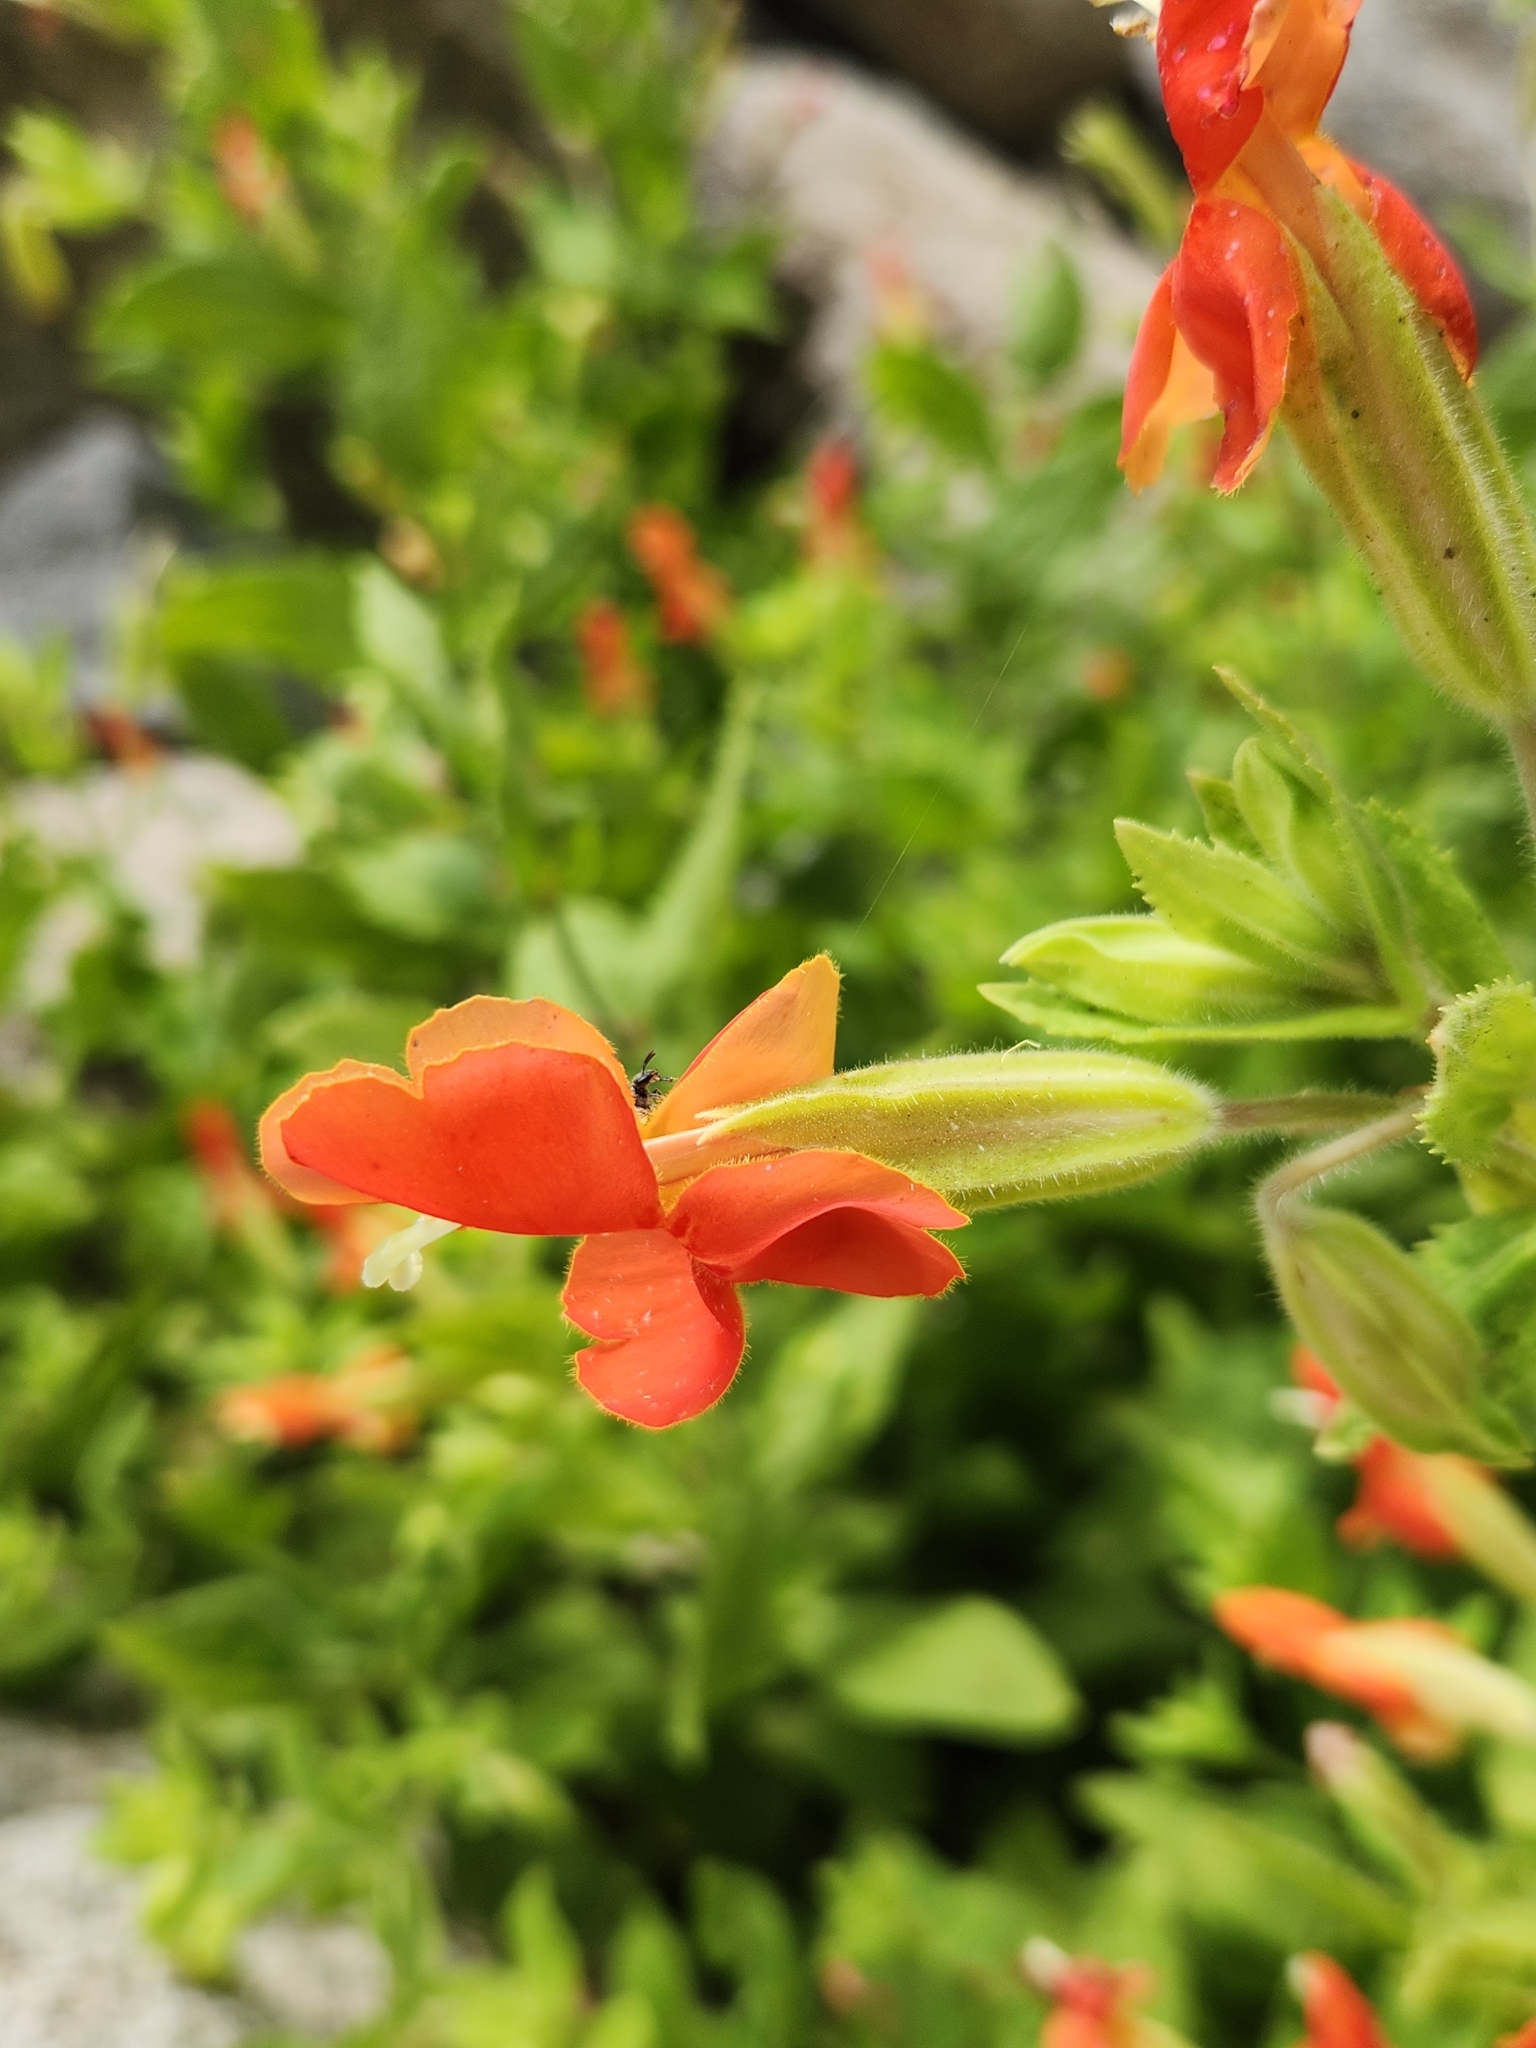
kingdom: Plantae
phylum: Tracheophyta
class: Magnoliopsida
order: Lamiales
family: Phrymaceae
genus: Erythranthe
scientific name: Erythranthe cardinalis
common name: Scarlet monkey-flower
